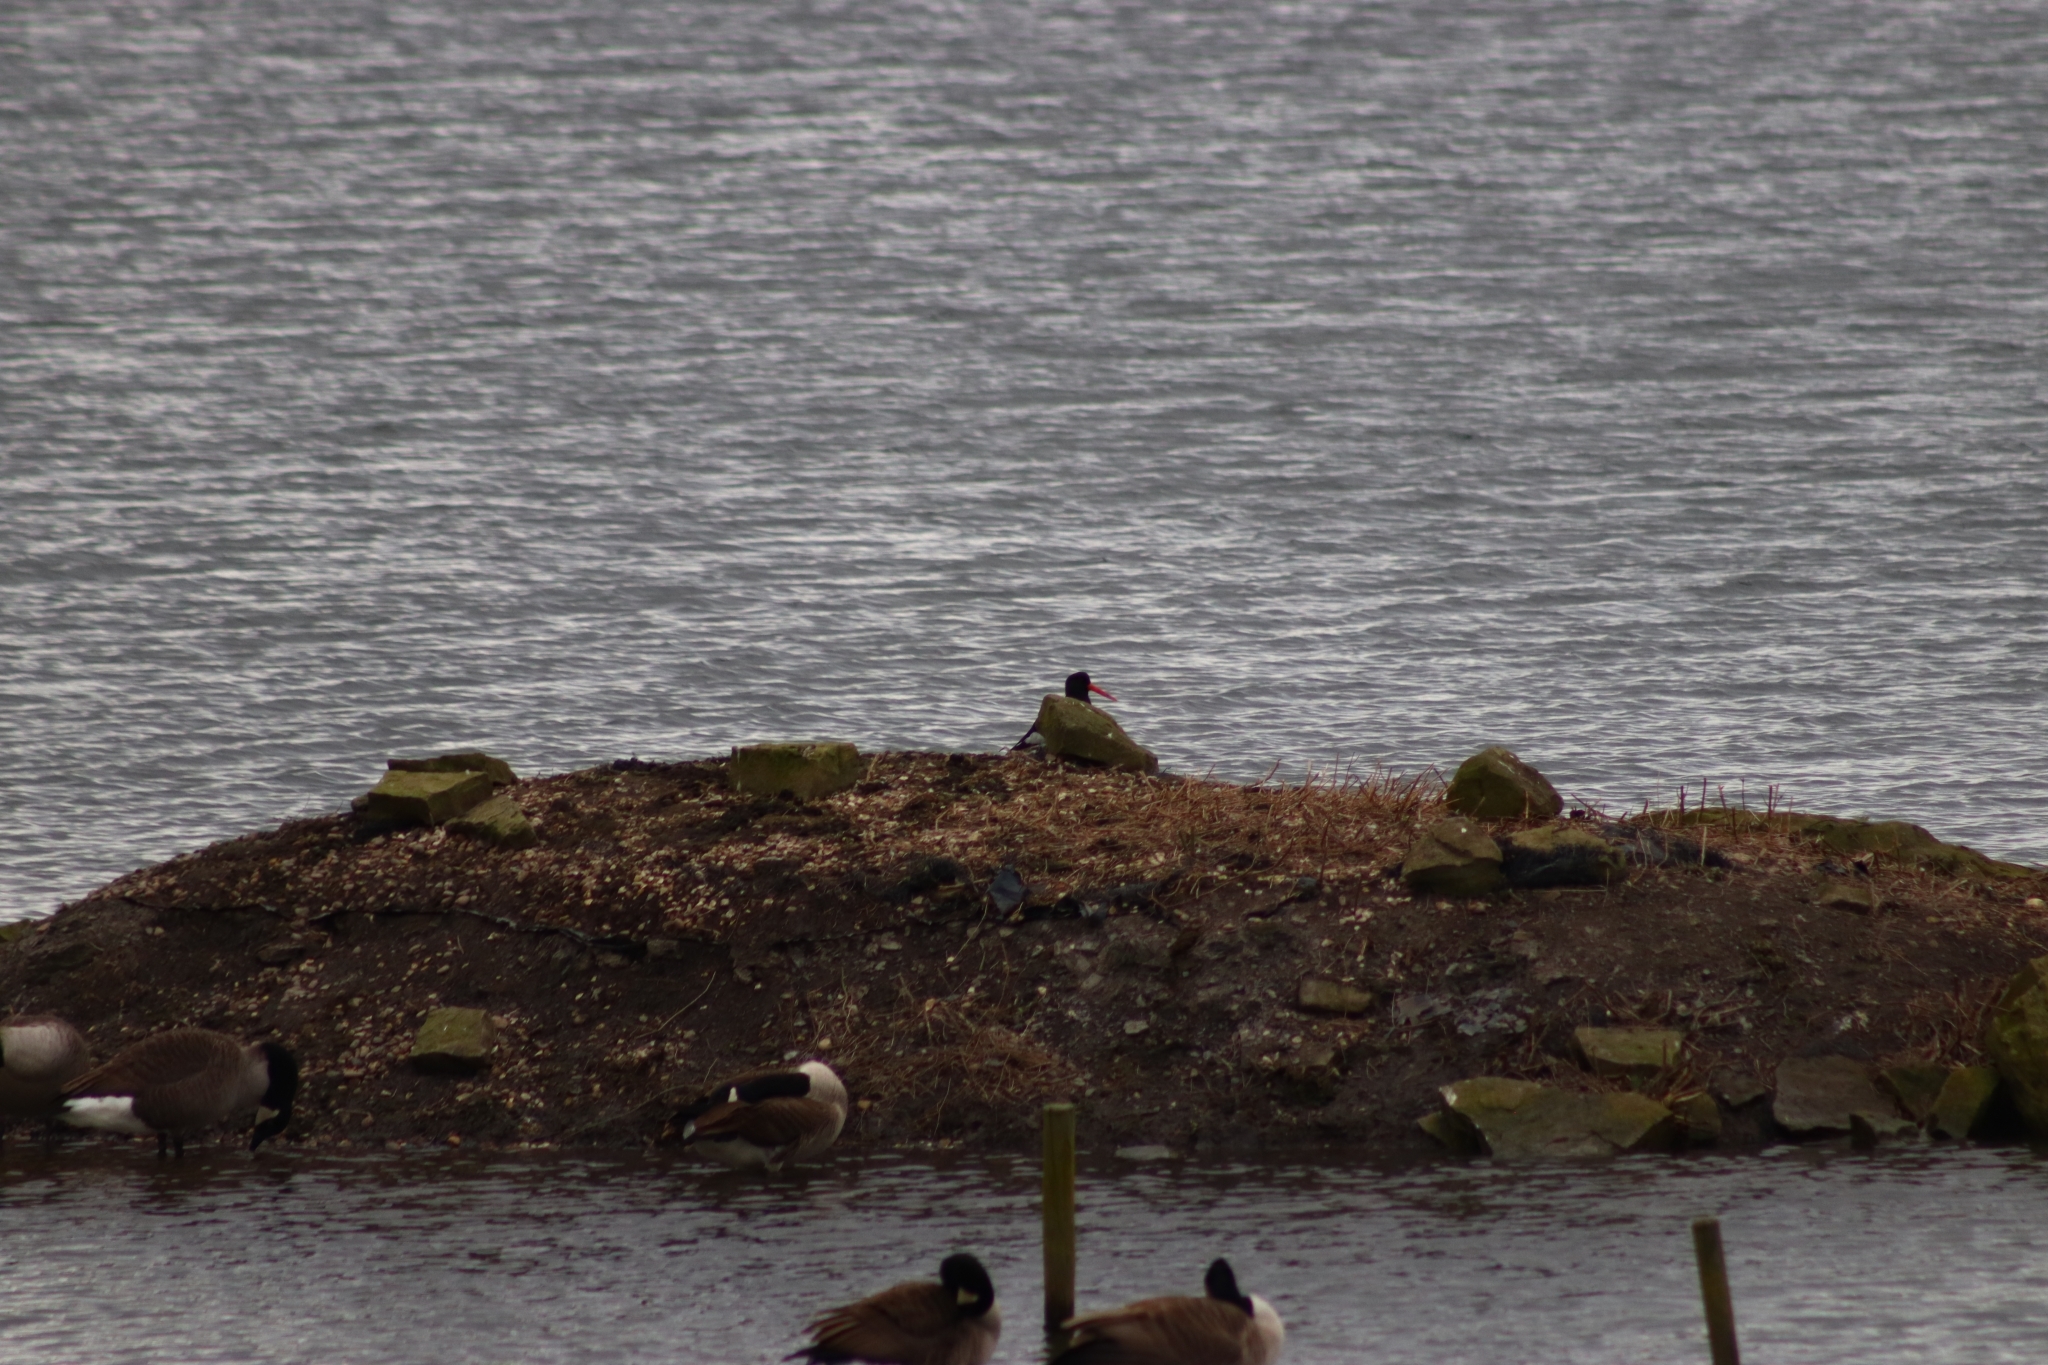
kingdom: Animalia
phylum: Chordata
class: Aves
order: Charadriiformes
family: Haematopodidae
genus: Haematopus
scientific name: Haematopus ostralegus
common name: Eurasian oystercatcher
